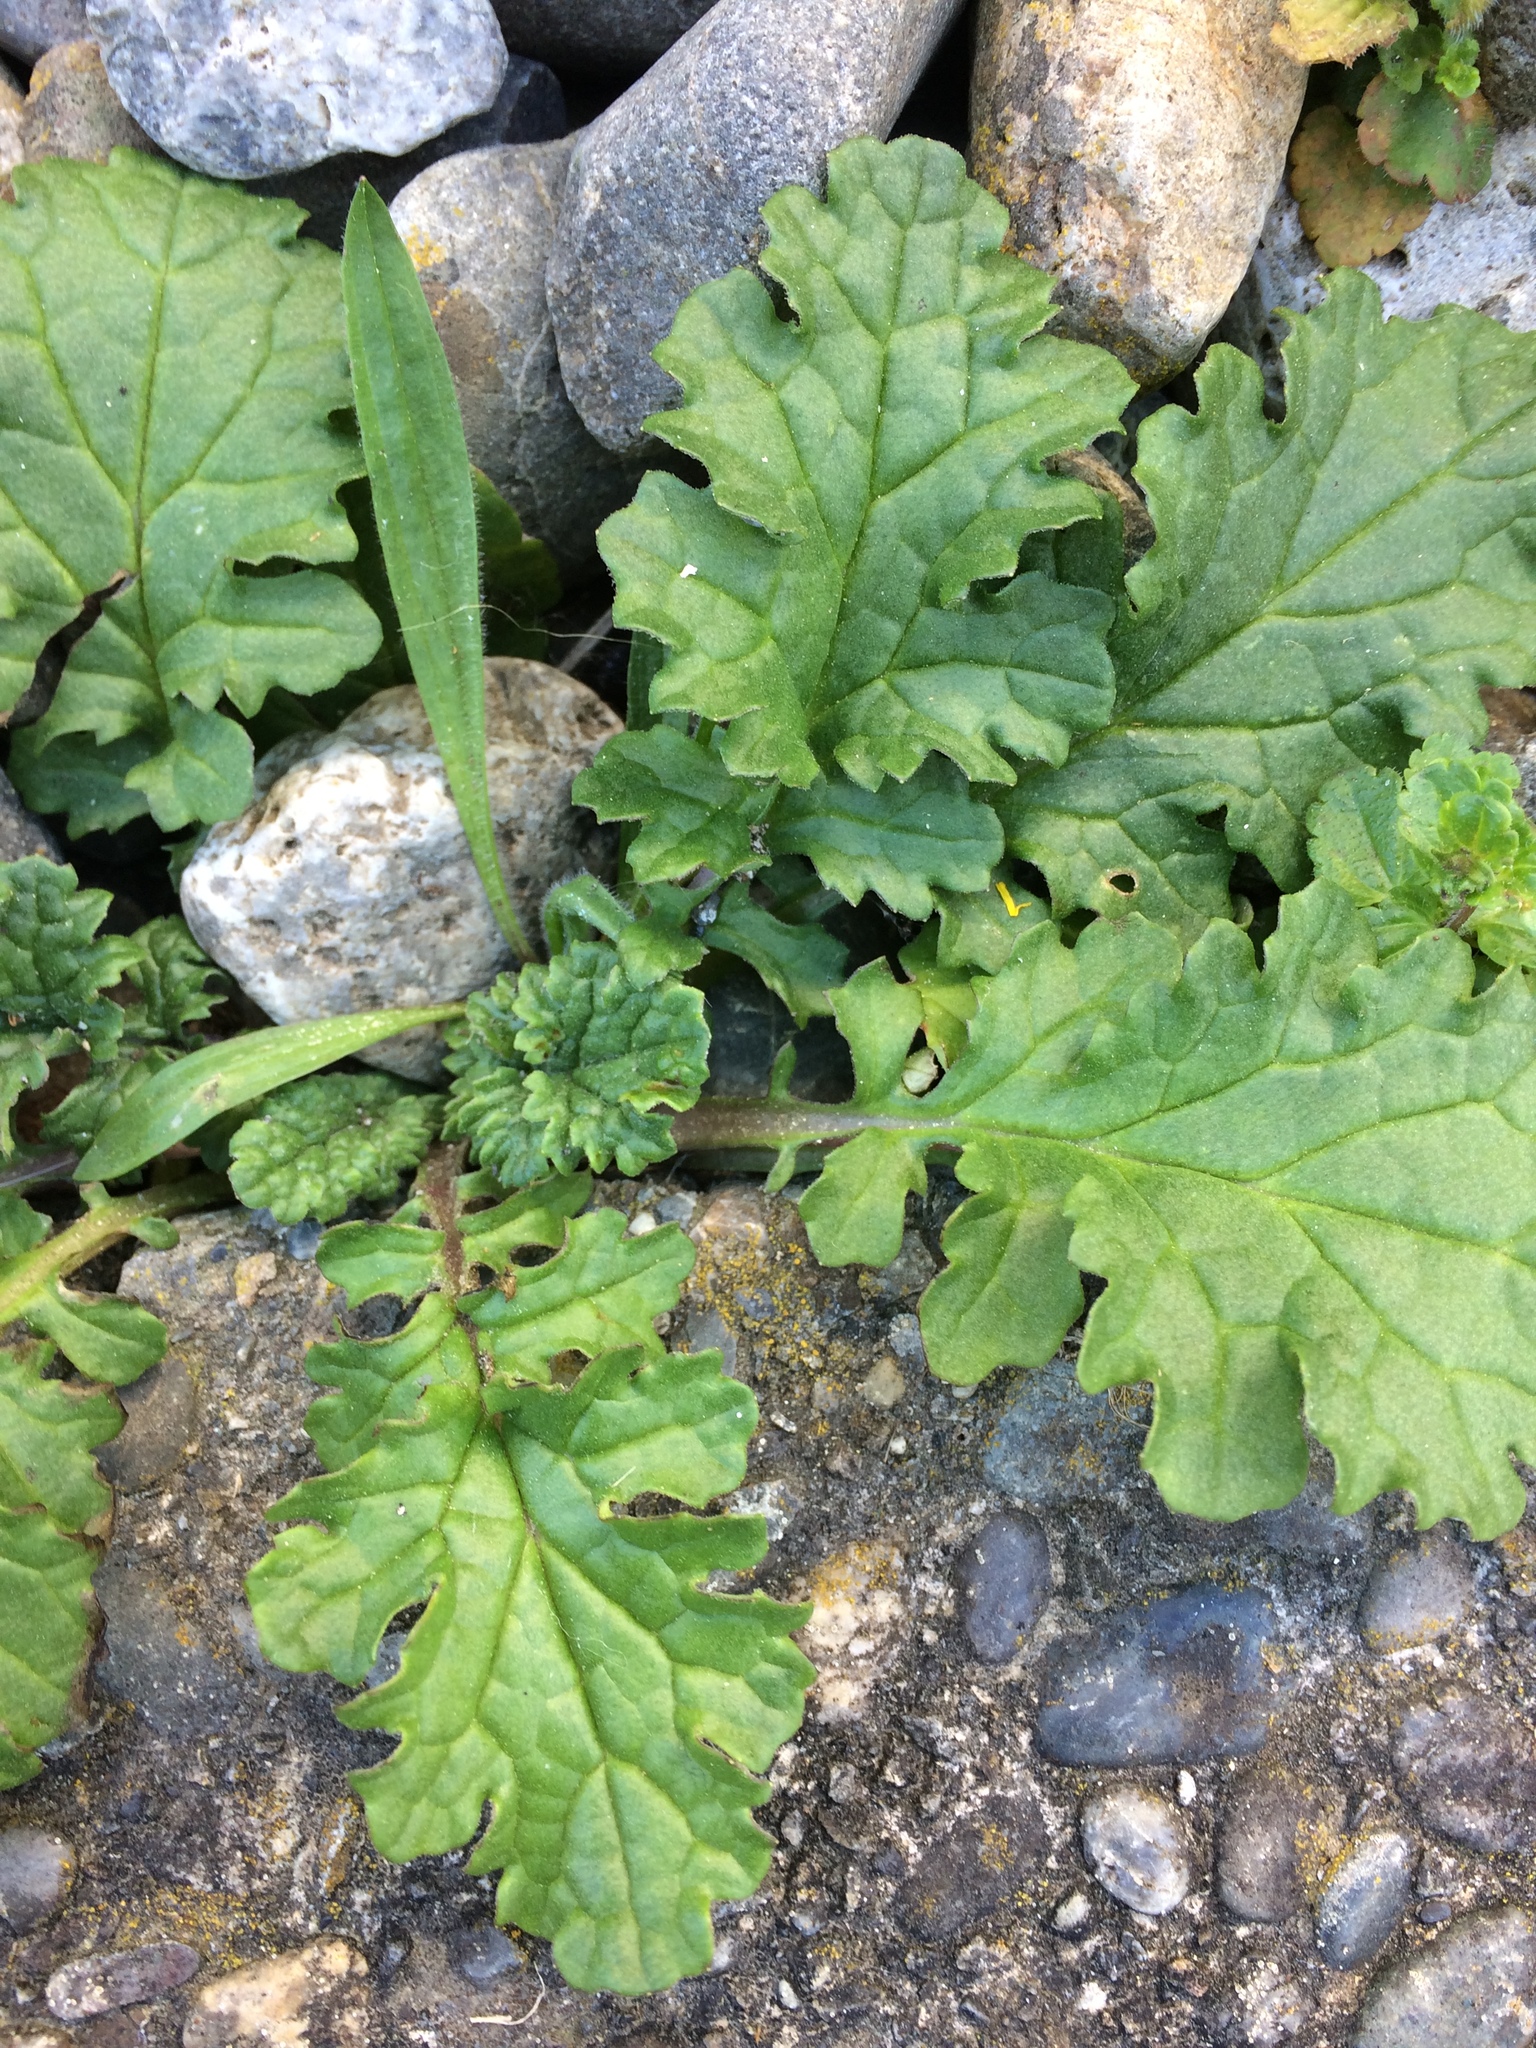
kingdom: Plantae
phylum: Tracheophyta
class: Magnoliopsida
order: Asterales
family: Asteraceae
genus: Jacobaea
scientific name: Jacobaea vulgaris
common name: Stinking willie
